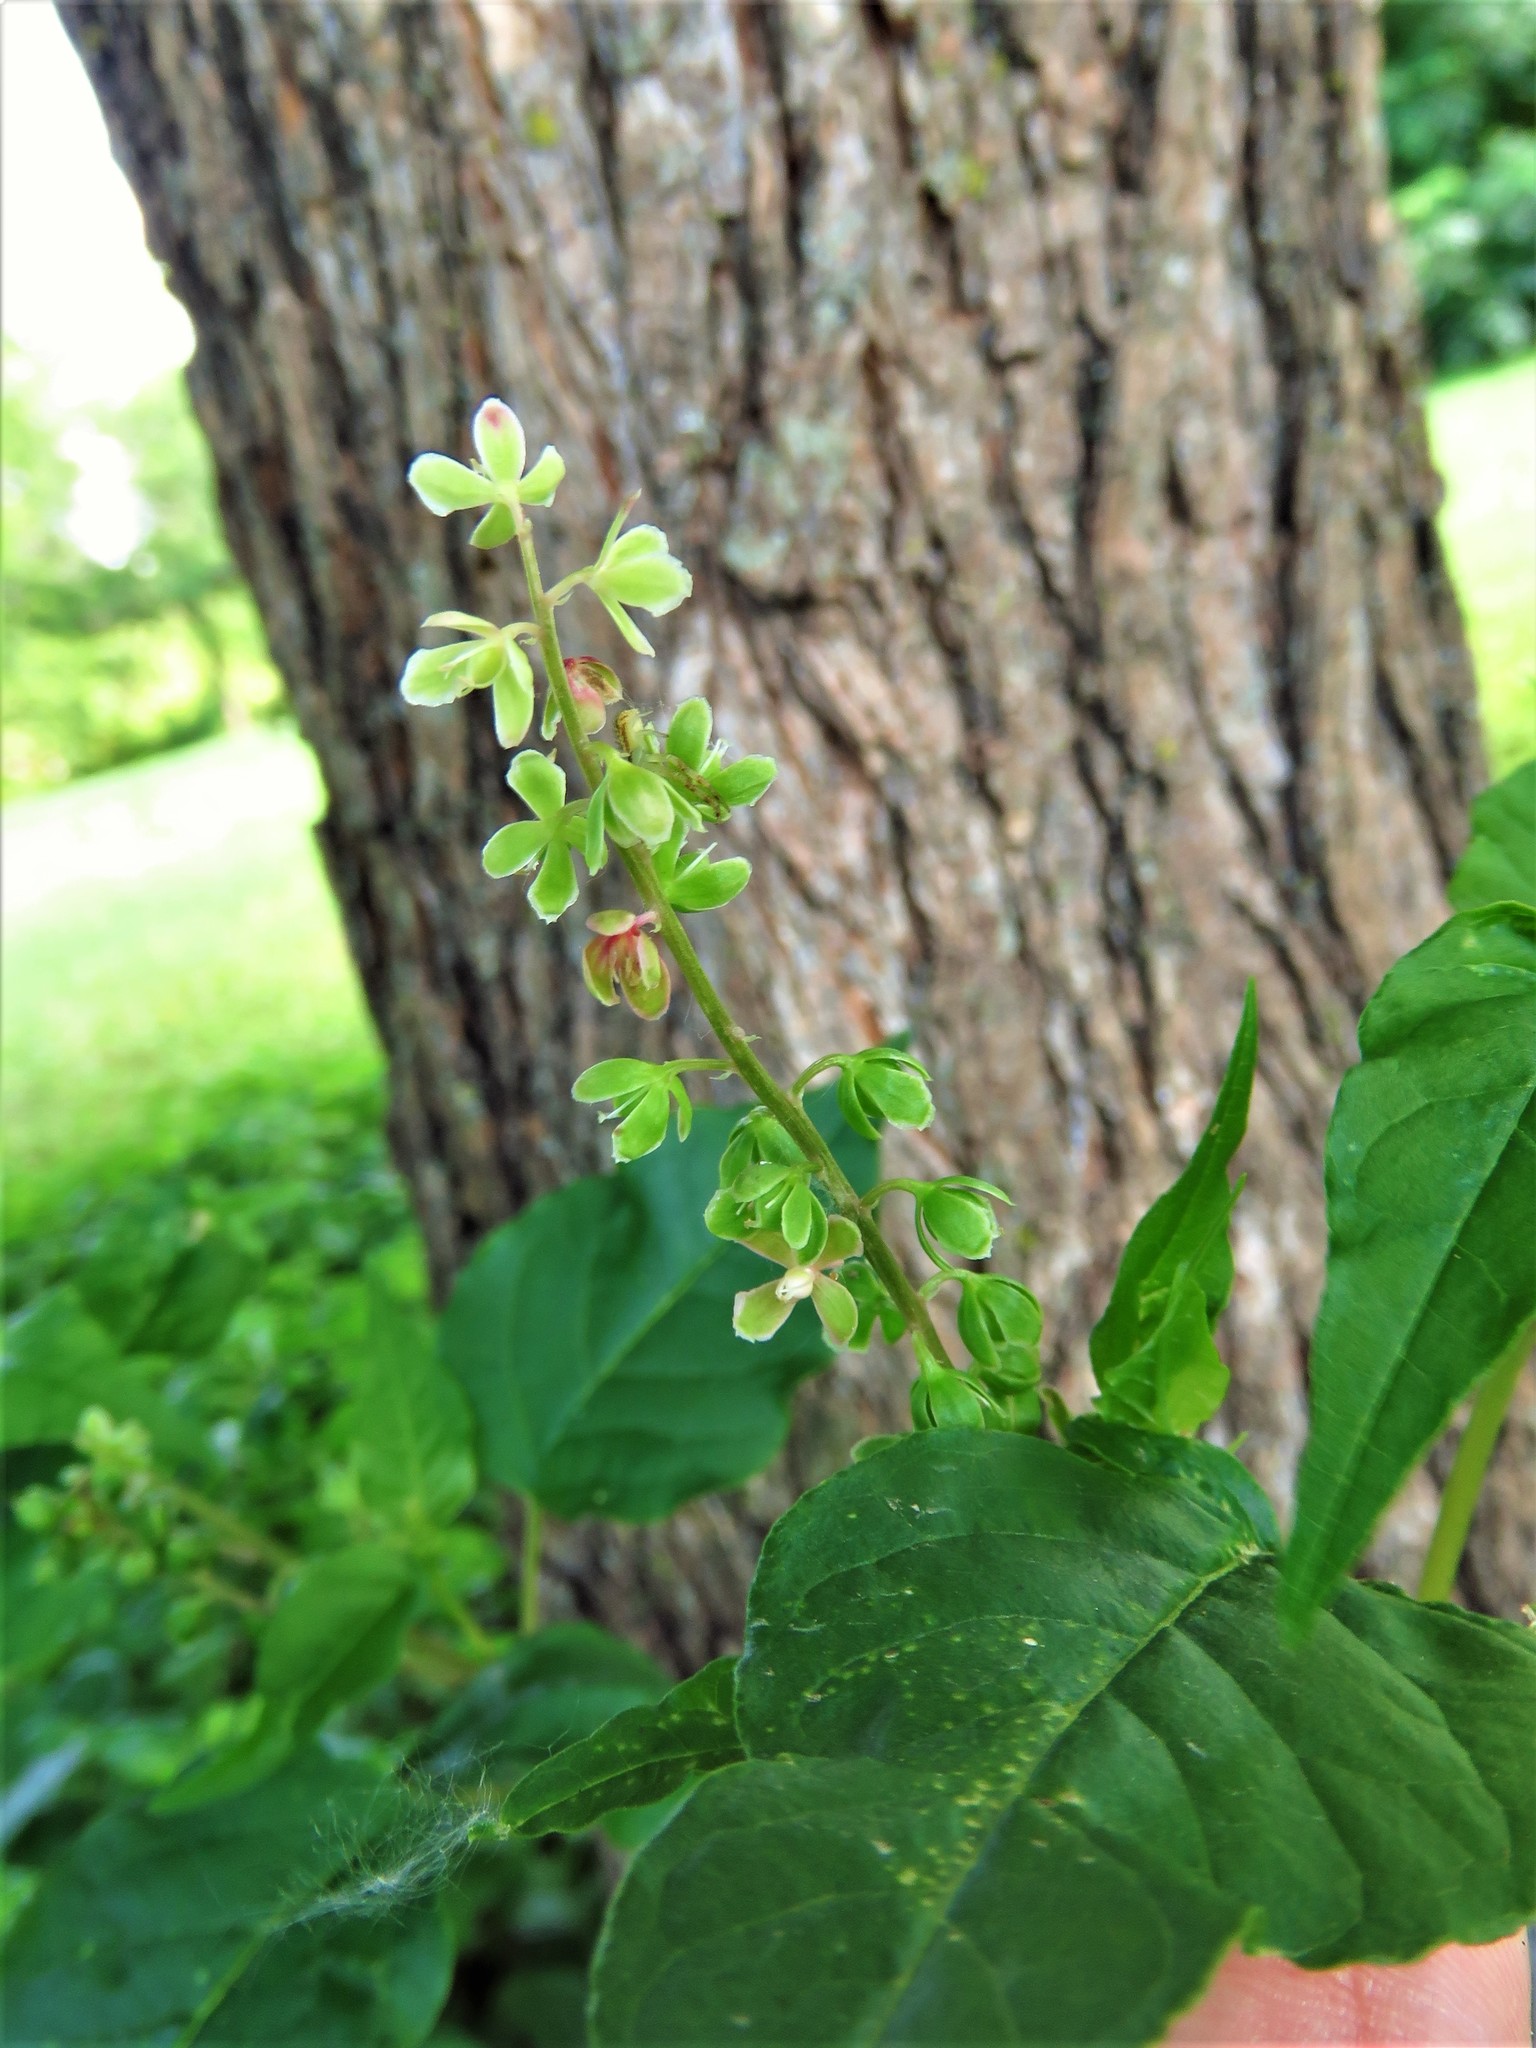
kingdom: Plantae
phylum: Tracheophyta
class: Magnoliopsida
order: Caryophyllales
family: Phytolaccaceae
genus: Rivina
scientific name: Rivina humilis
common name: Rougeplant
